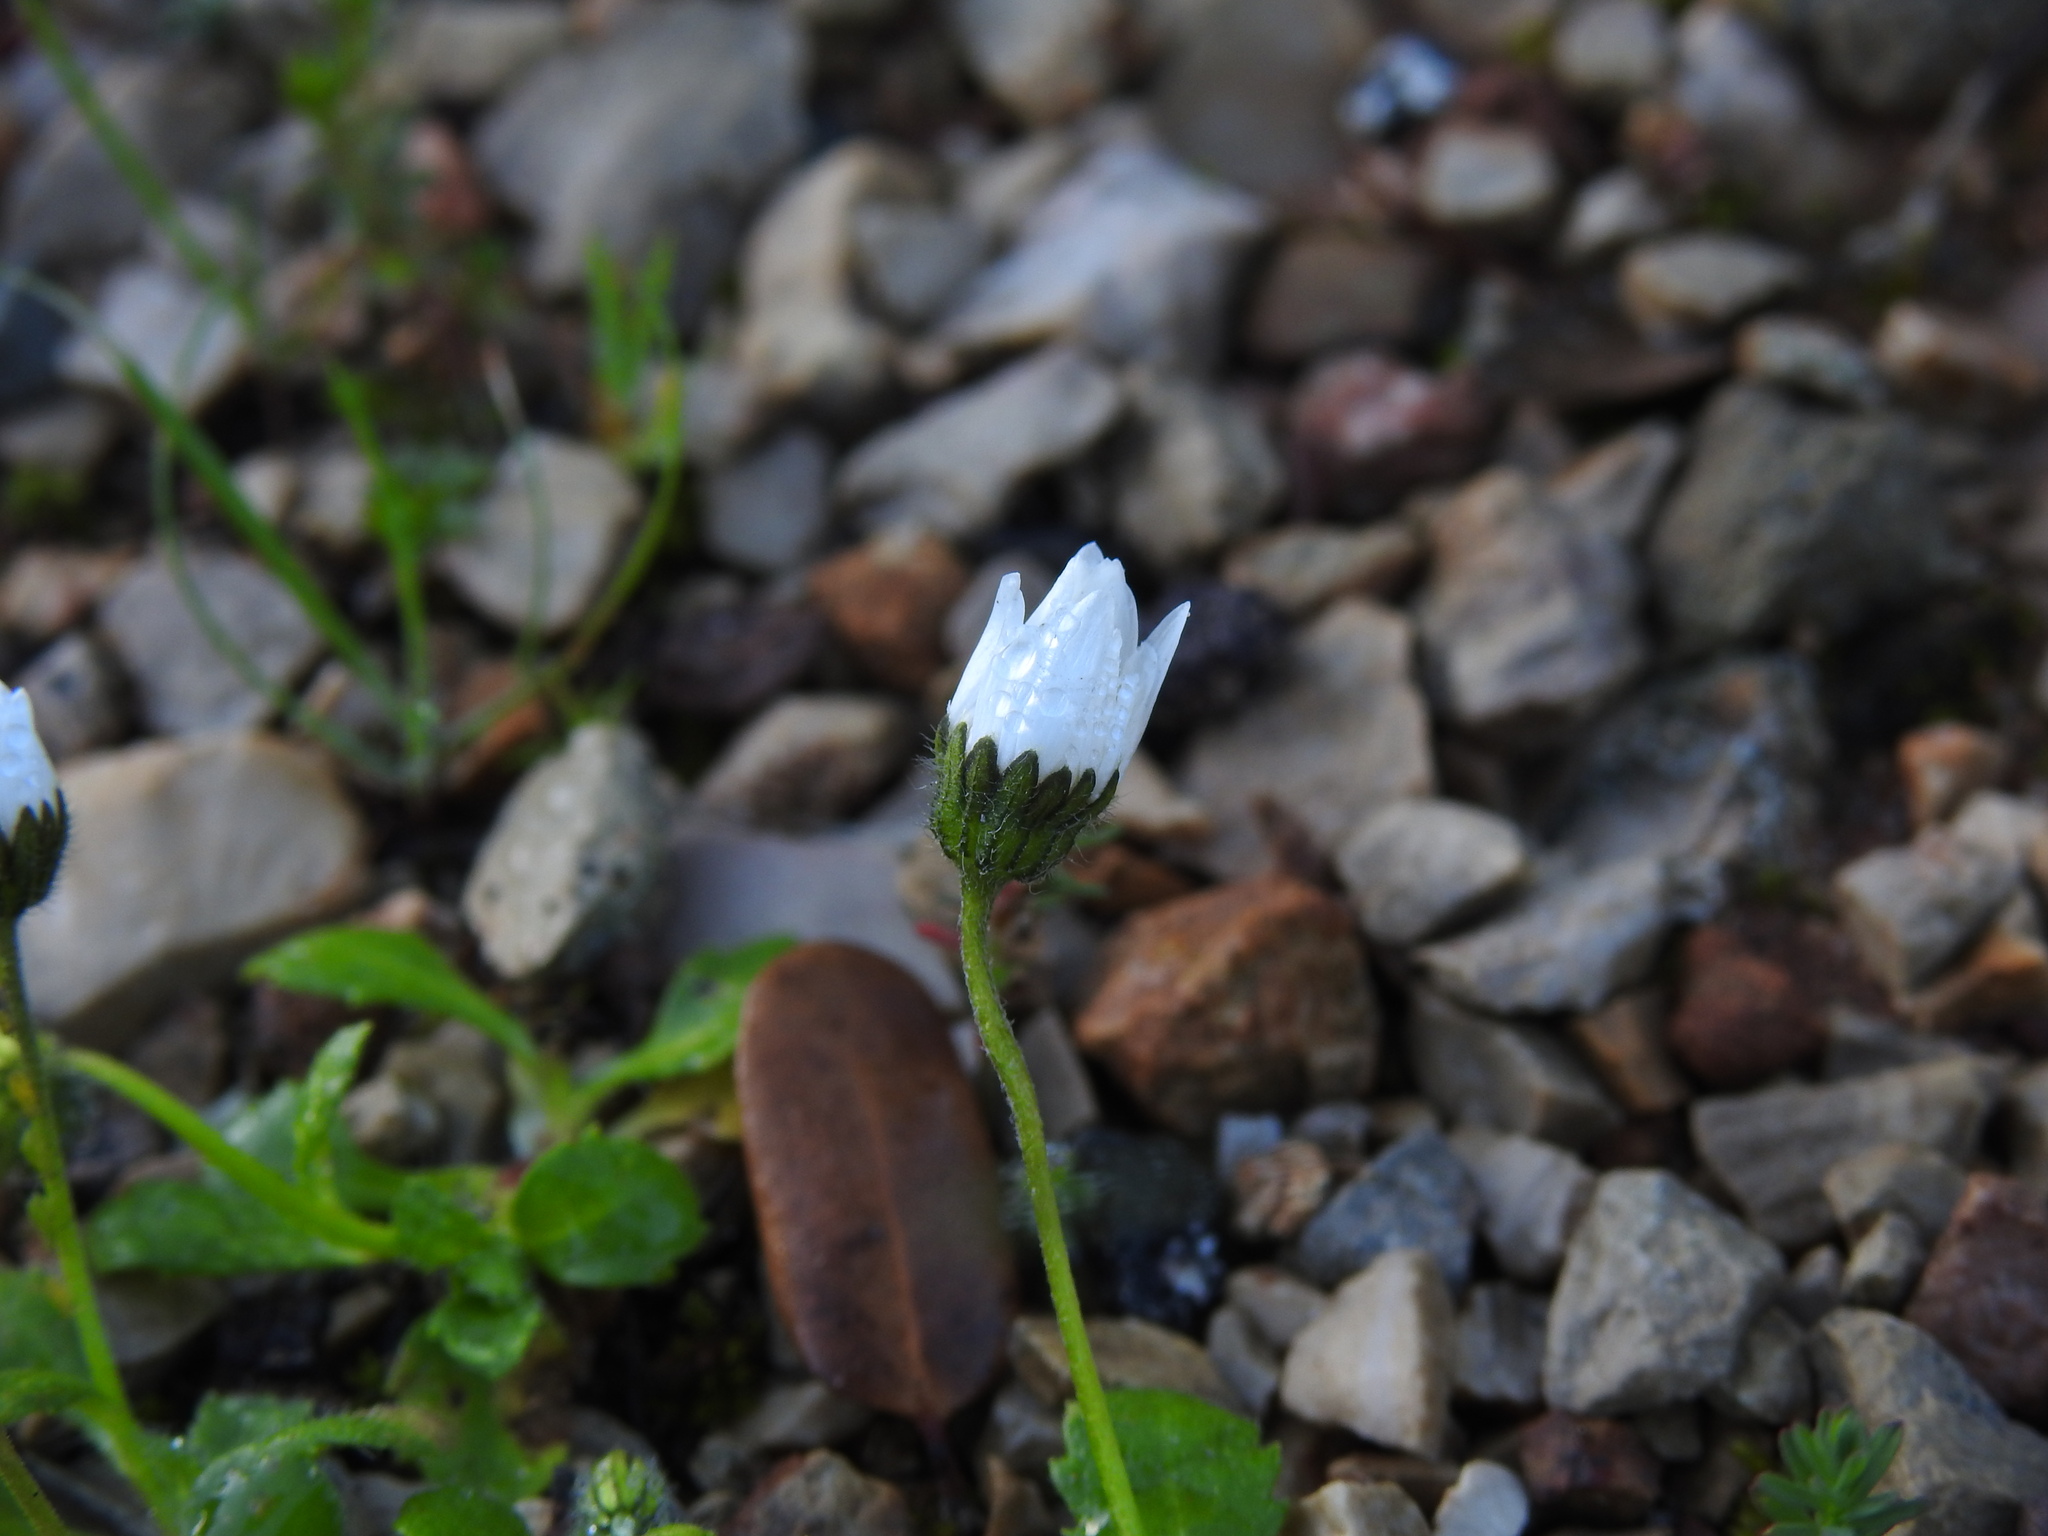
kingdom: Plantae
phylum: Tracheophyta
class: Magnoliopsida
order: Asterales
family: Asteraceae
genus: Bellis
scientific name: Bellis annua
